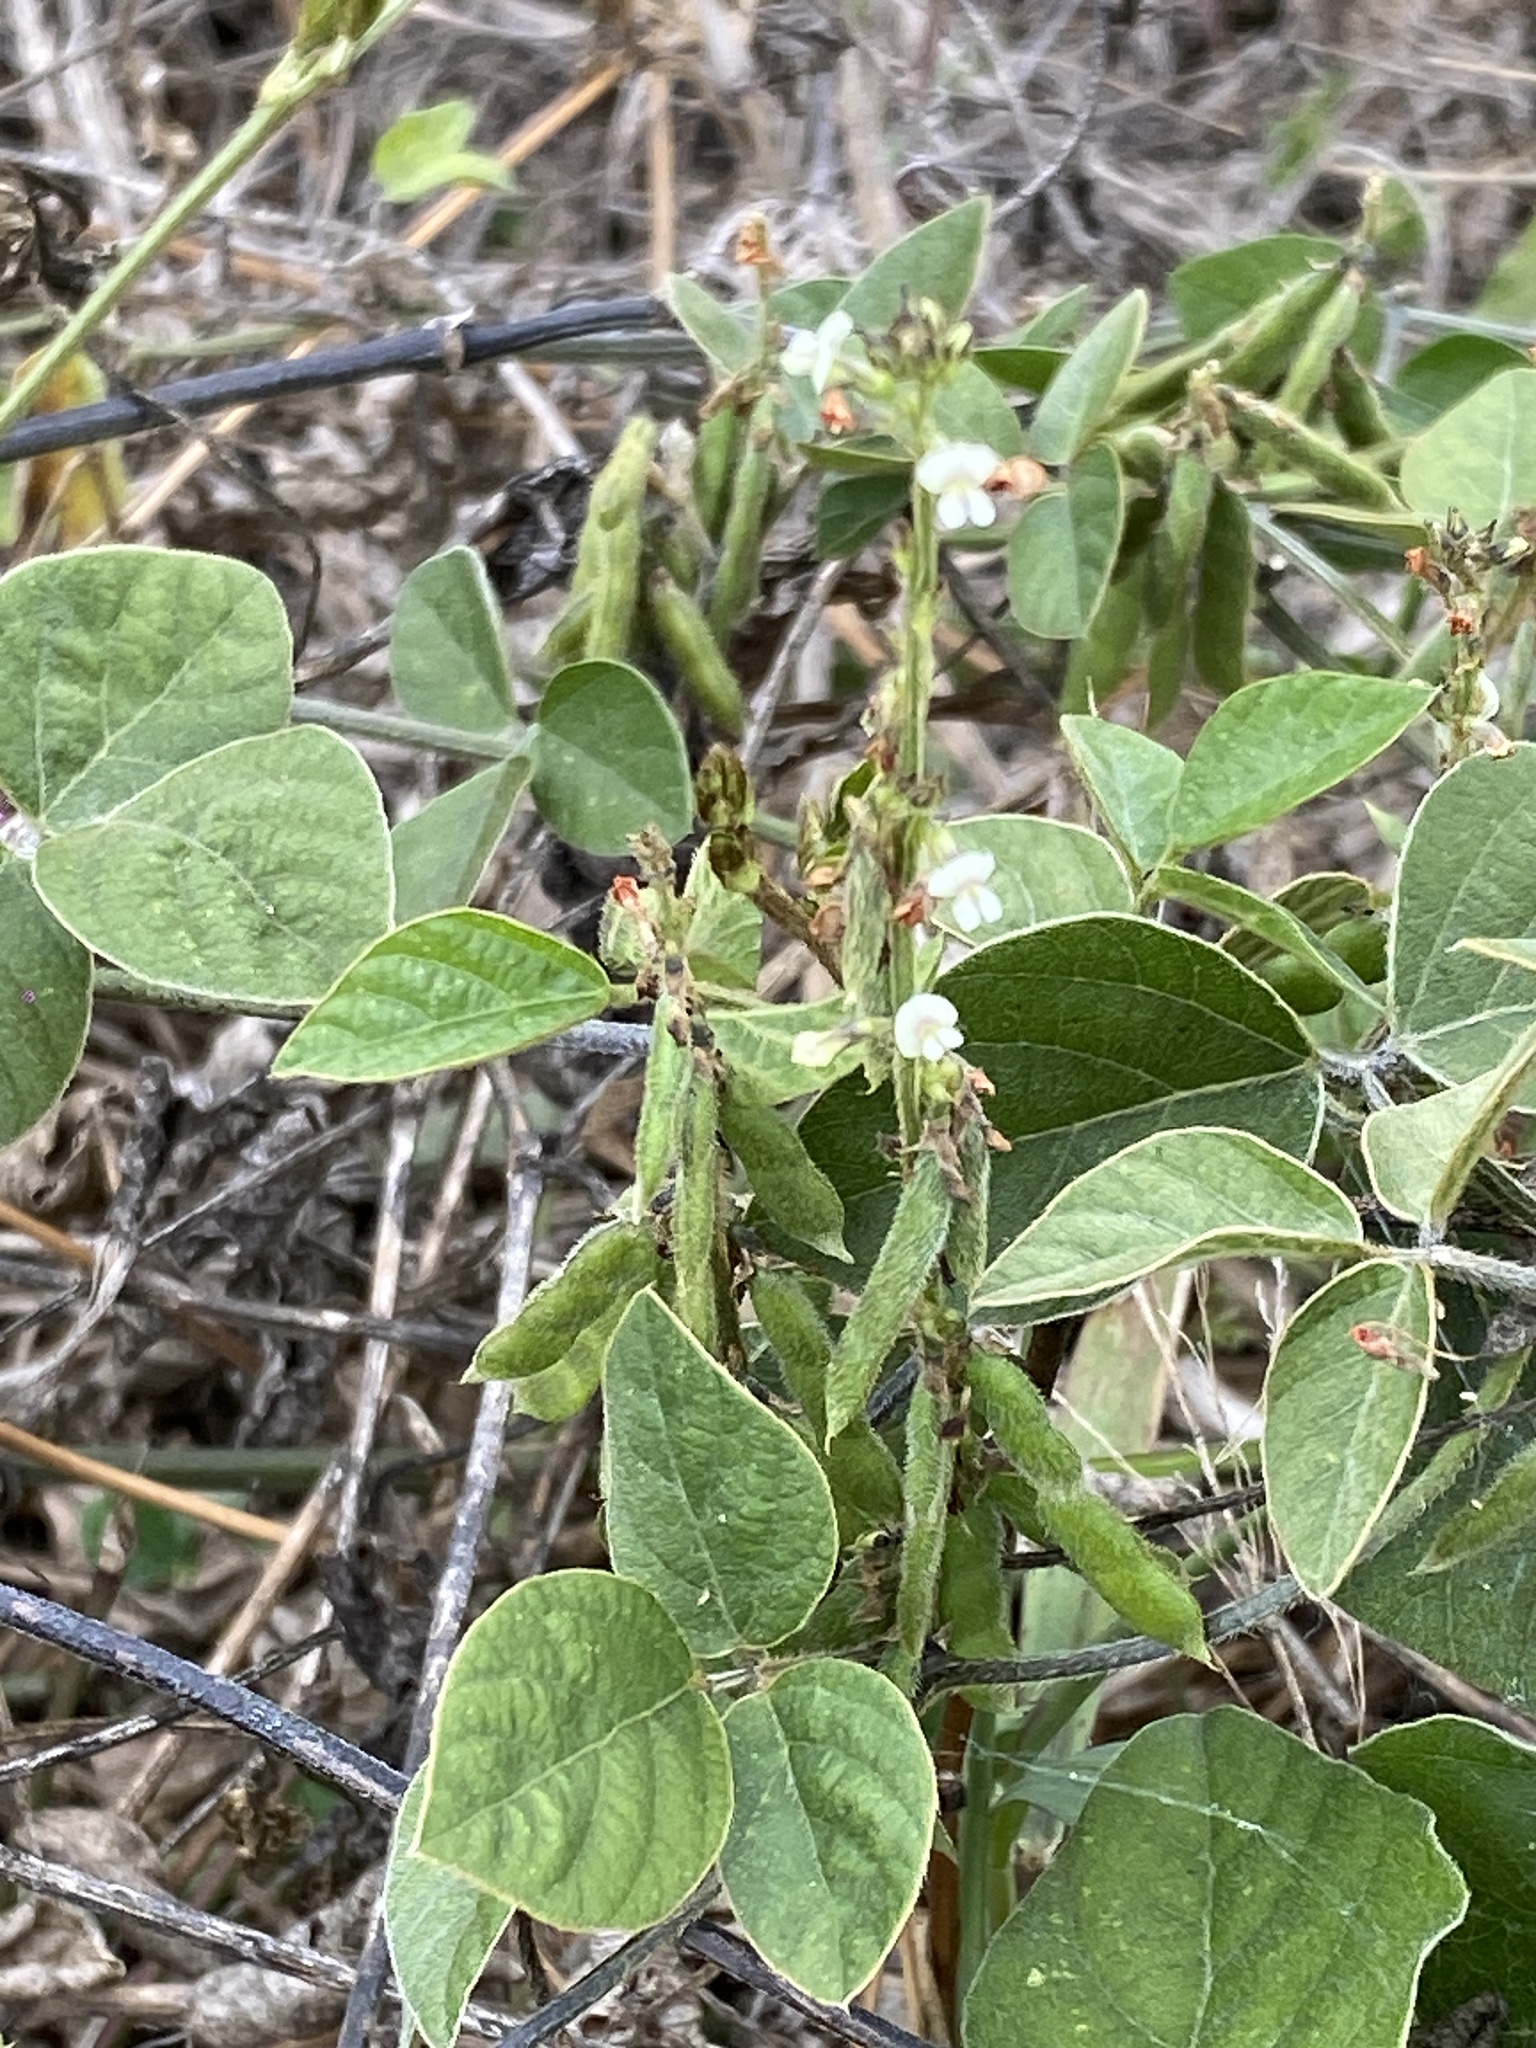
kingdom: Plantae
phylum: Tracheophyta
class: Magnoliopsida
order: Fabales
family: Fabaceae
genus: Neonotonia
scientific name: Neonotonia wightii
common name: Perennial soybean
